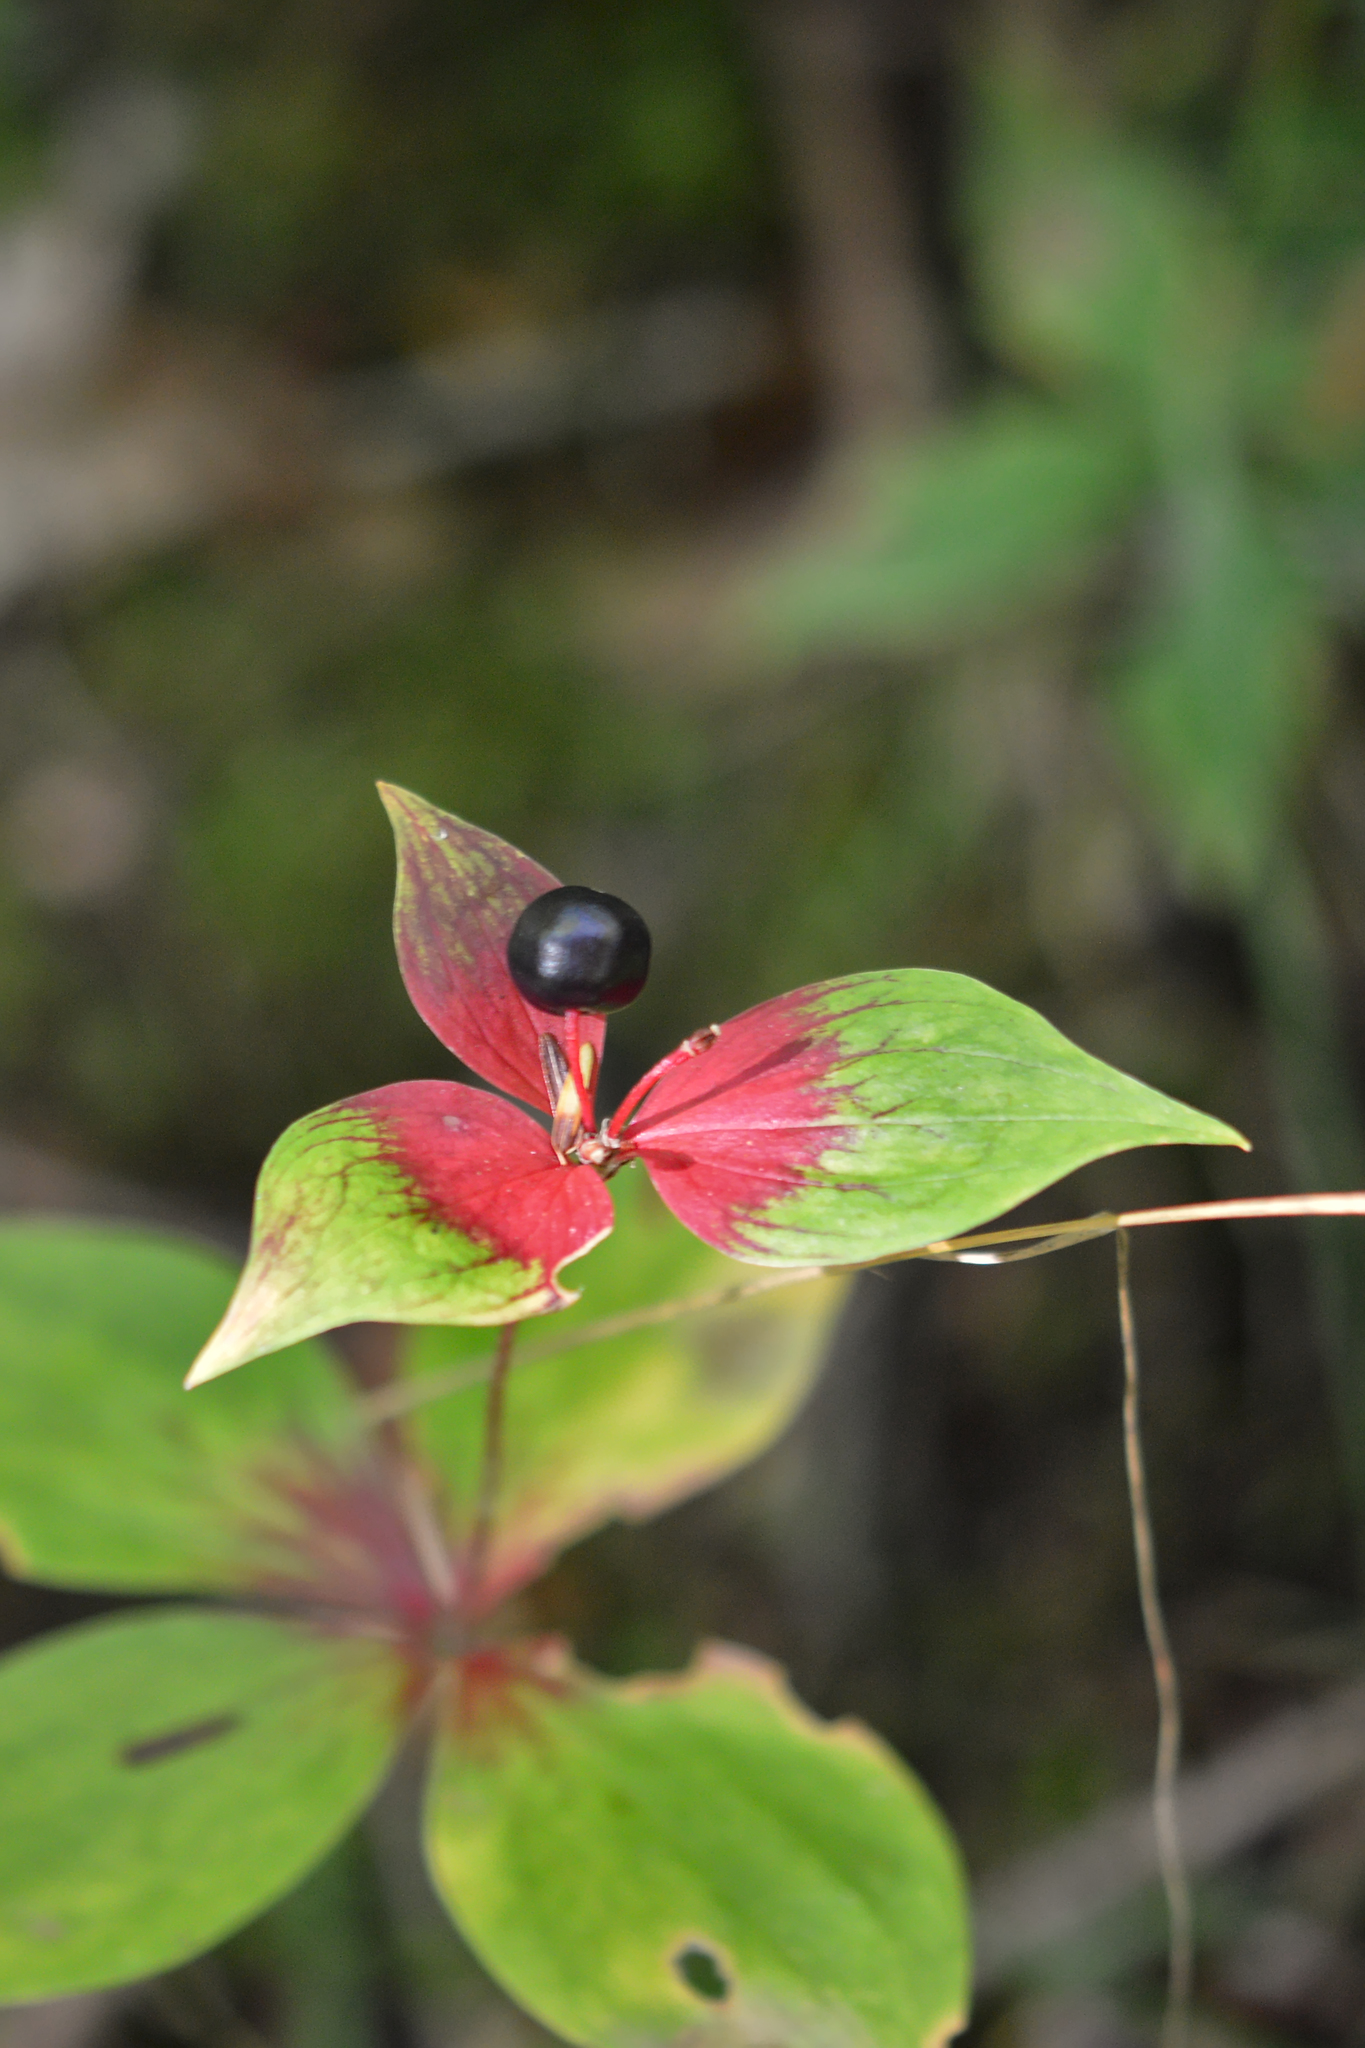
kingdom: Plantae
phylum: Tracheophyta
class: Liliopsida
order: Liliales
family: Liliaceae
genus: Medeola
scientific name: Medeola virginiana
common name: Indian cucumber-root
